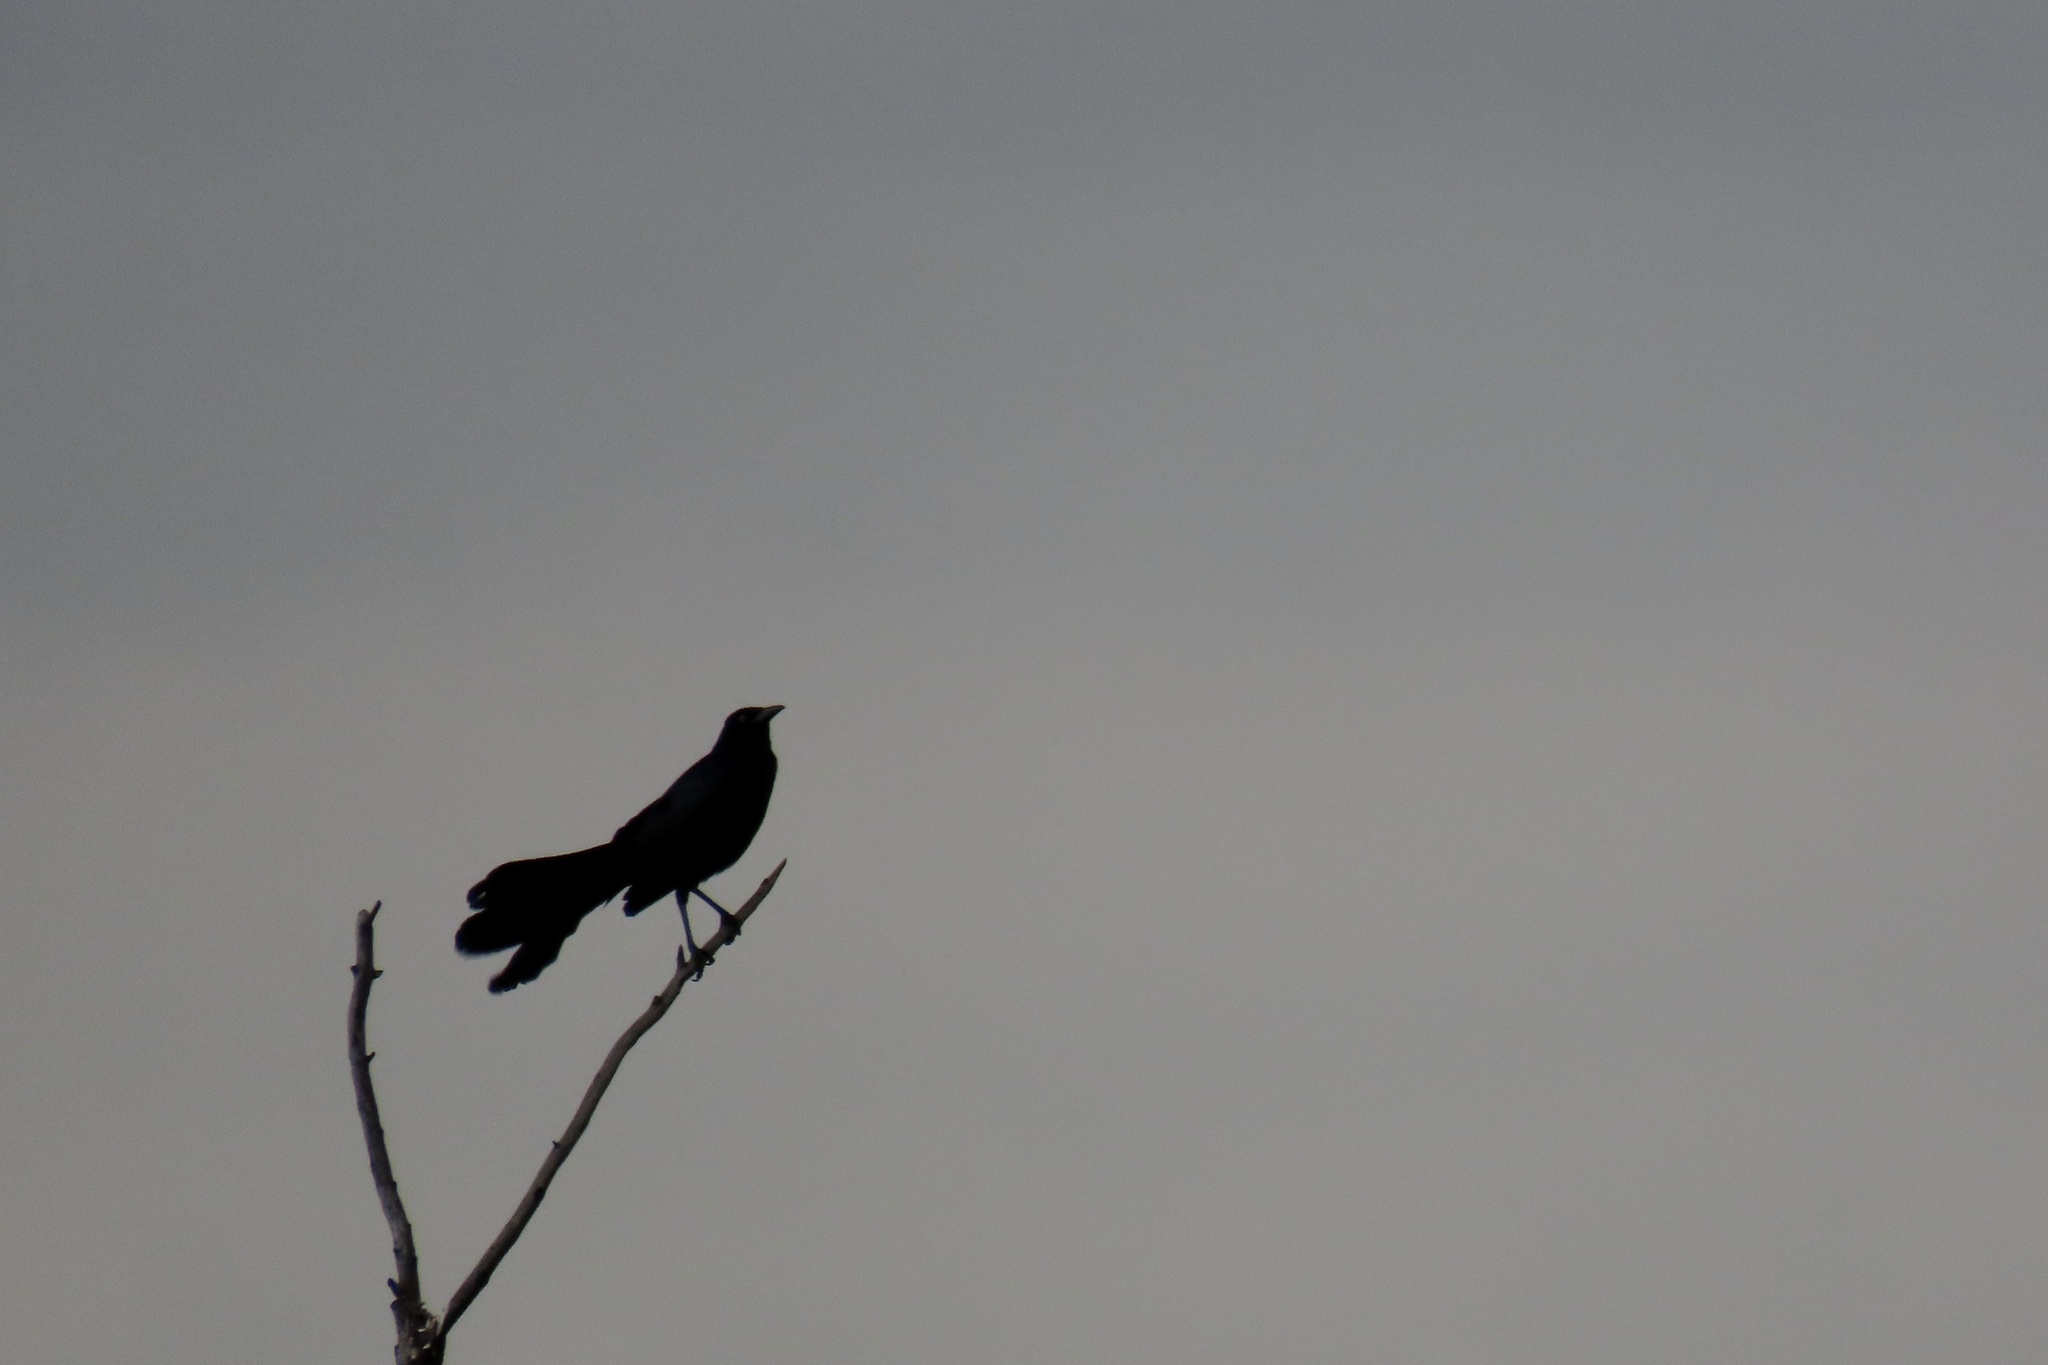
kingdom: Animalia
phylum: Chordata
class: Aves
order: Passeriformes
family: Icteridae
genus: Quiscalus
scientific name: Quiscalus mexicanus
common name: Great-tailed grackle
